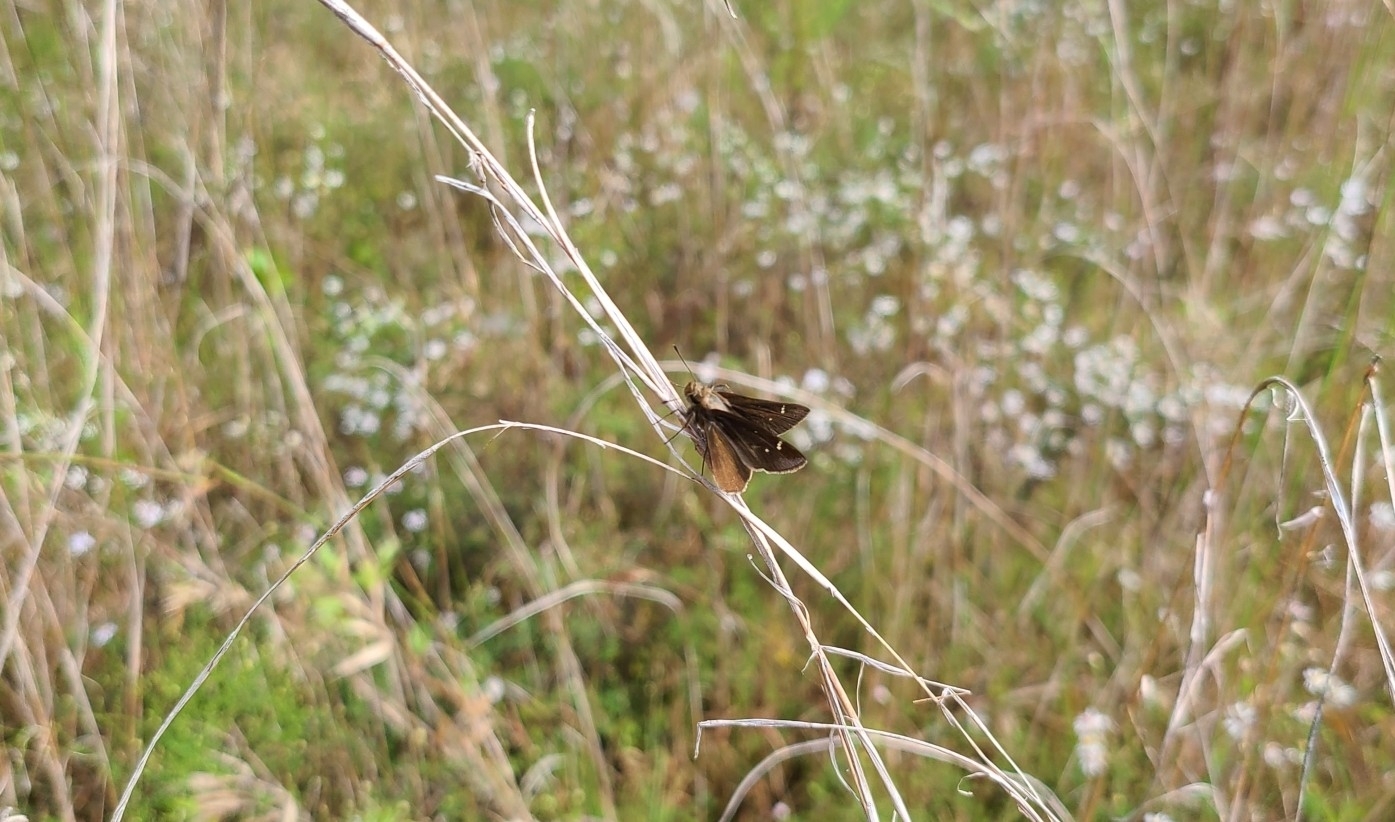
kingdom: Animalia
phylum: Arthropoda
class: Insecta
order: Lepidoptera
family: Hesperiidae
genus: Lerema
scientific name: Lerema accius
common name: Clouded skipper
